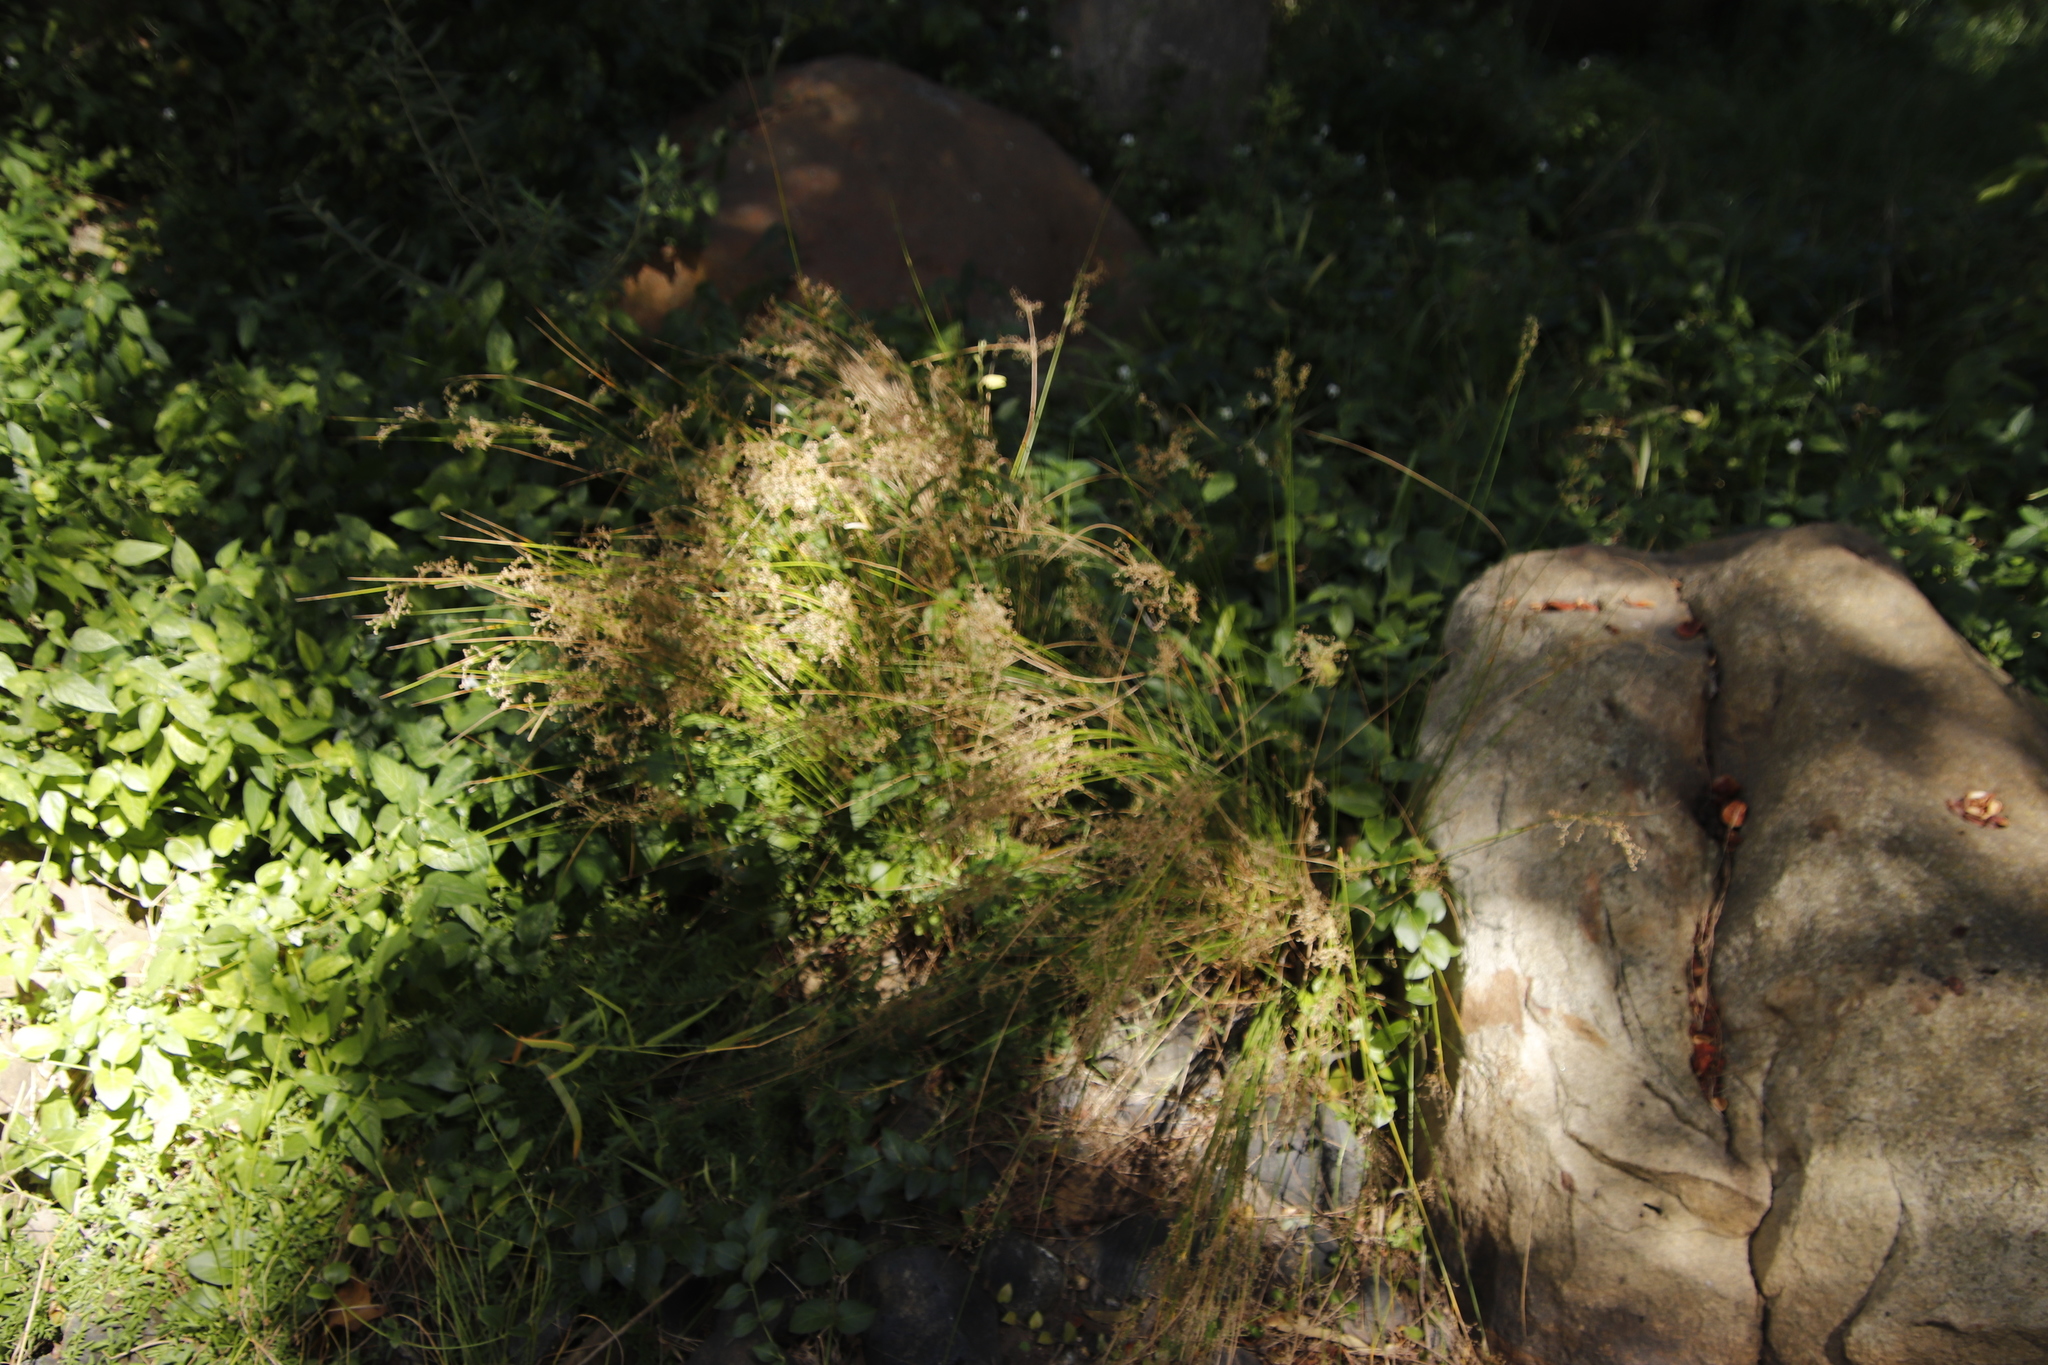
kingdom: Plantae
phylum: Tracheophyta
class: Liliopsida
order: Poales
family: Juncaceae
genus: Juncus
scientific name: Juncus effusus
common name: Soft rush
